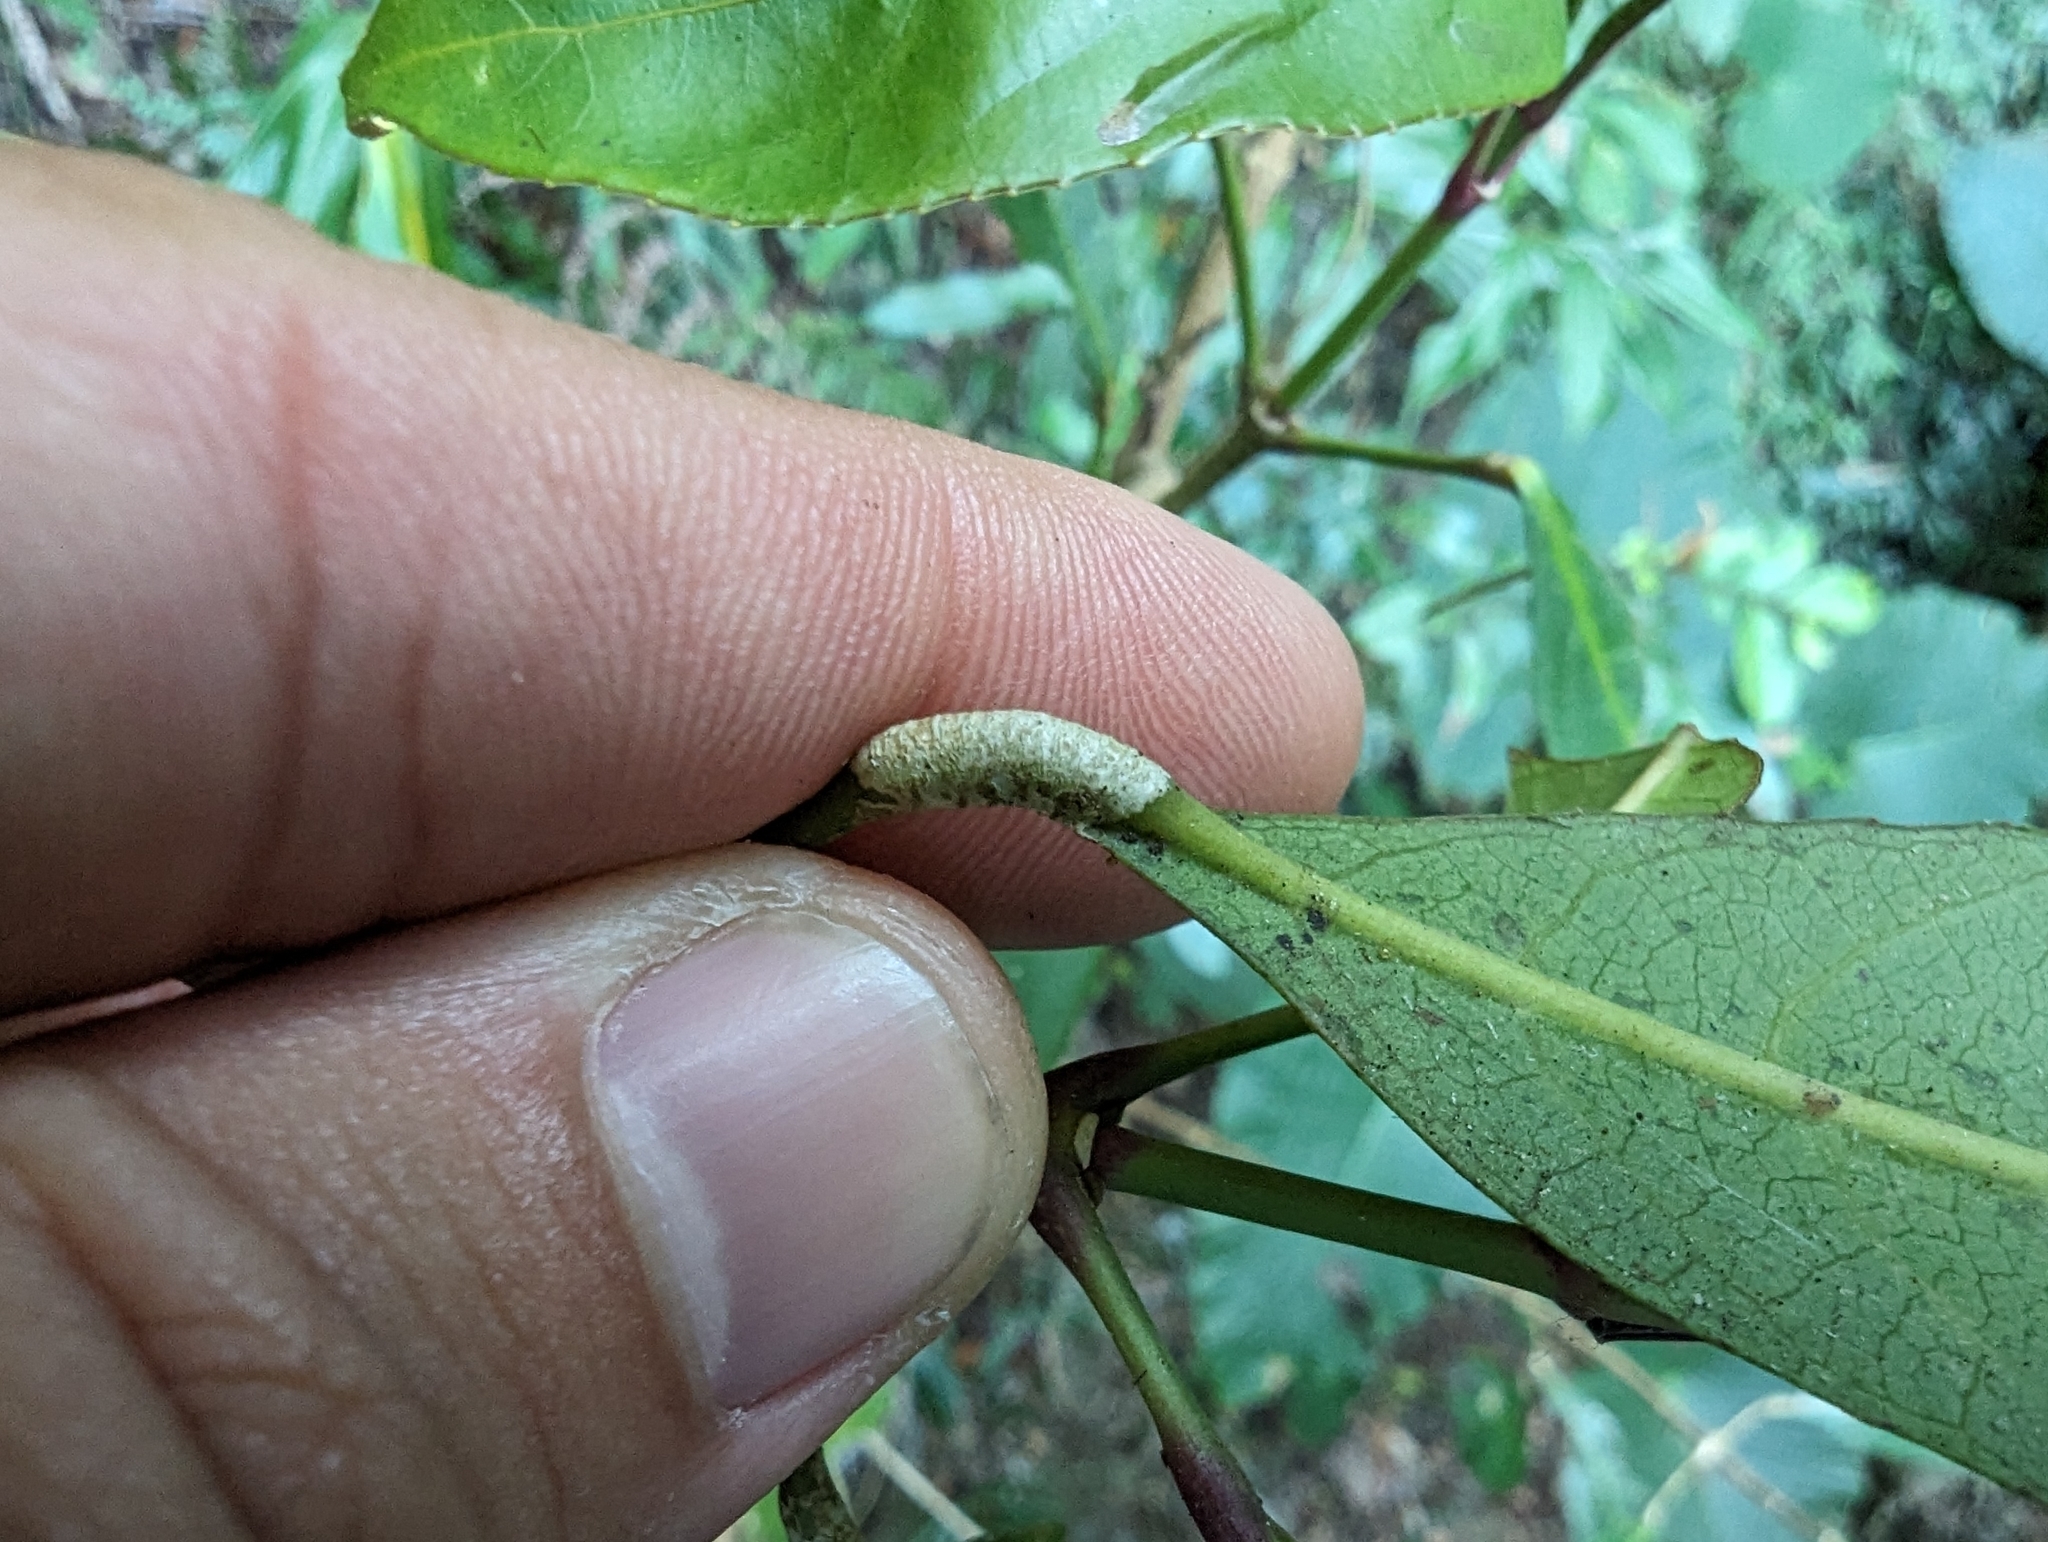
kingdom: Plantae
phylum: Tracheophyta
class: Magnoliopsida
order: Crossosomatales
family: Staphyleaceae
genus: Turpinia
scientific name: Turpinia formosana
